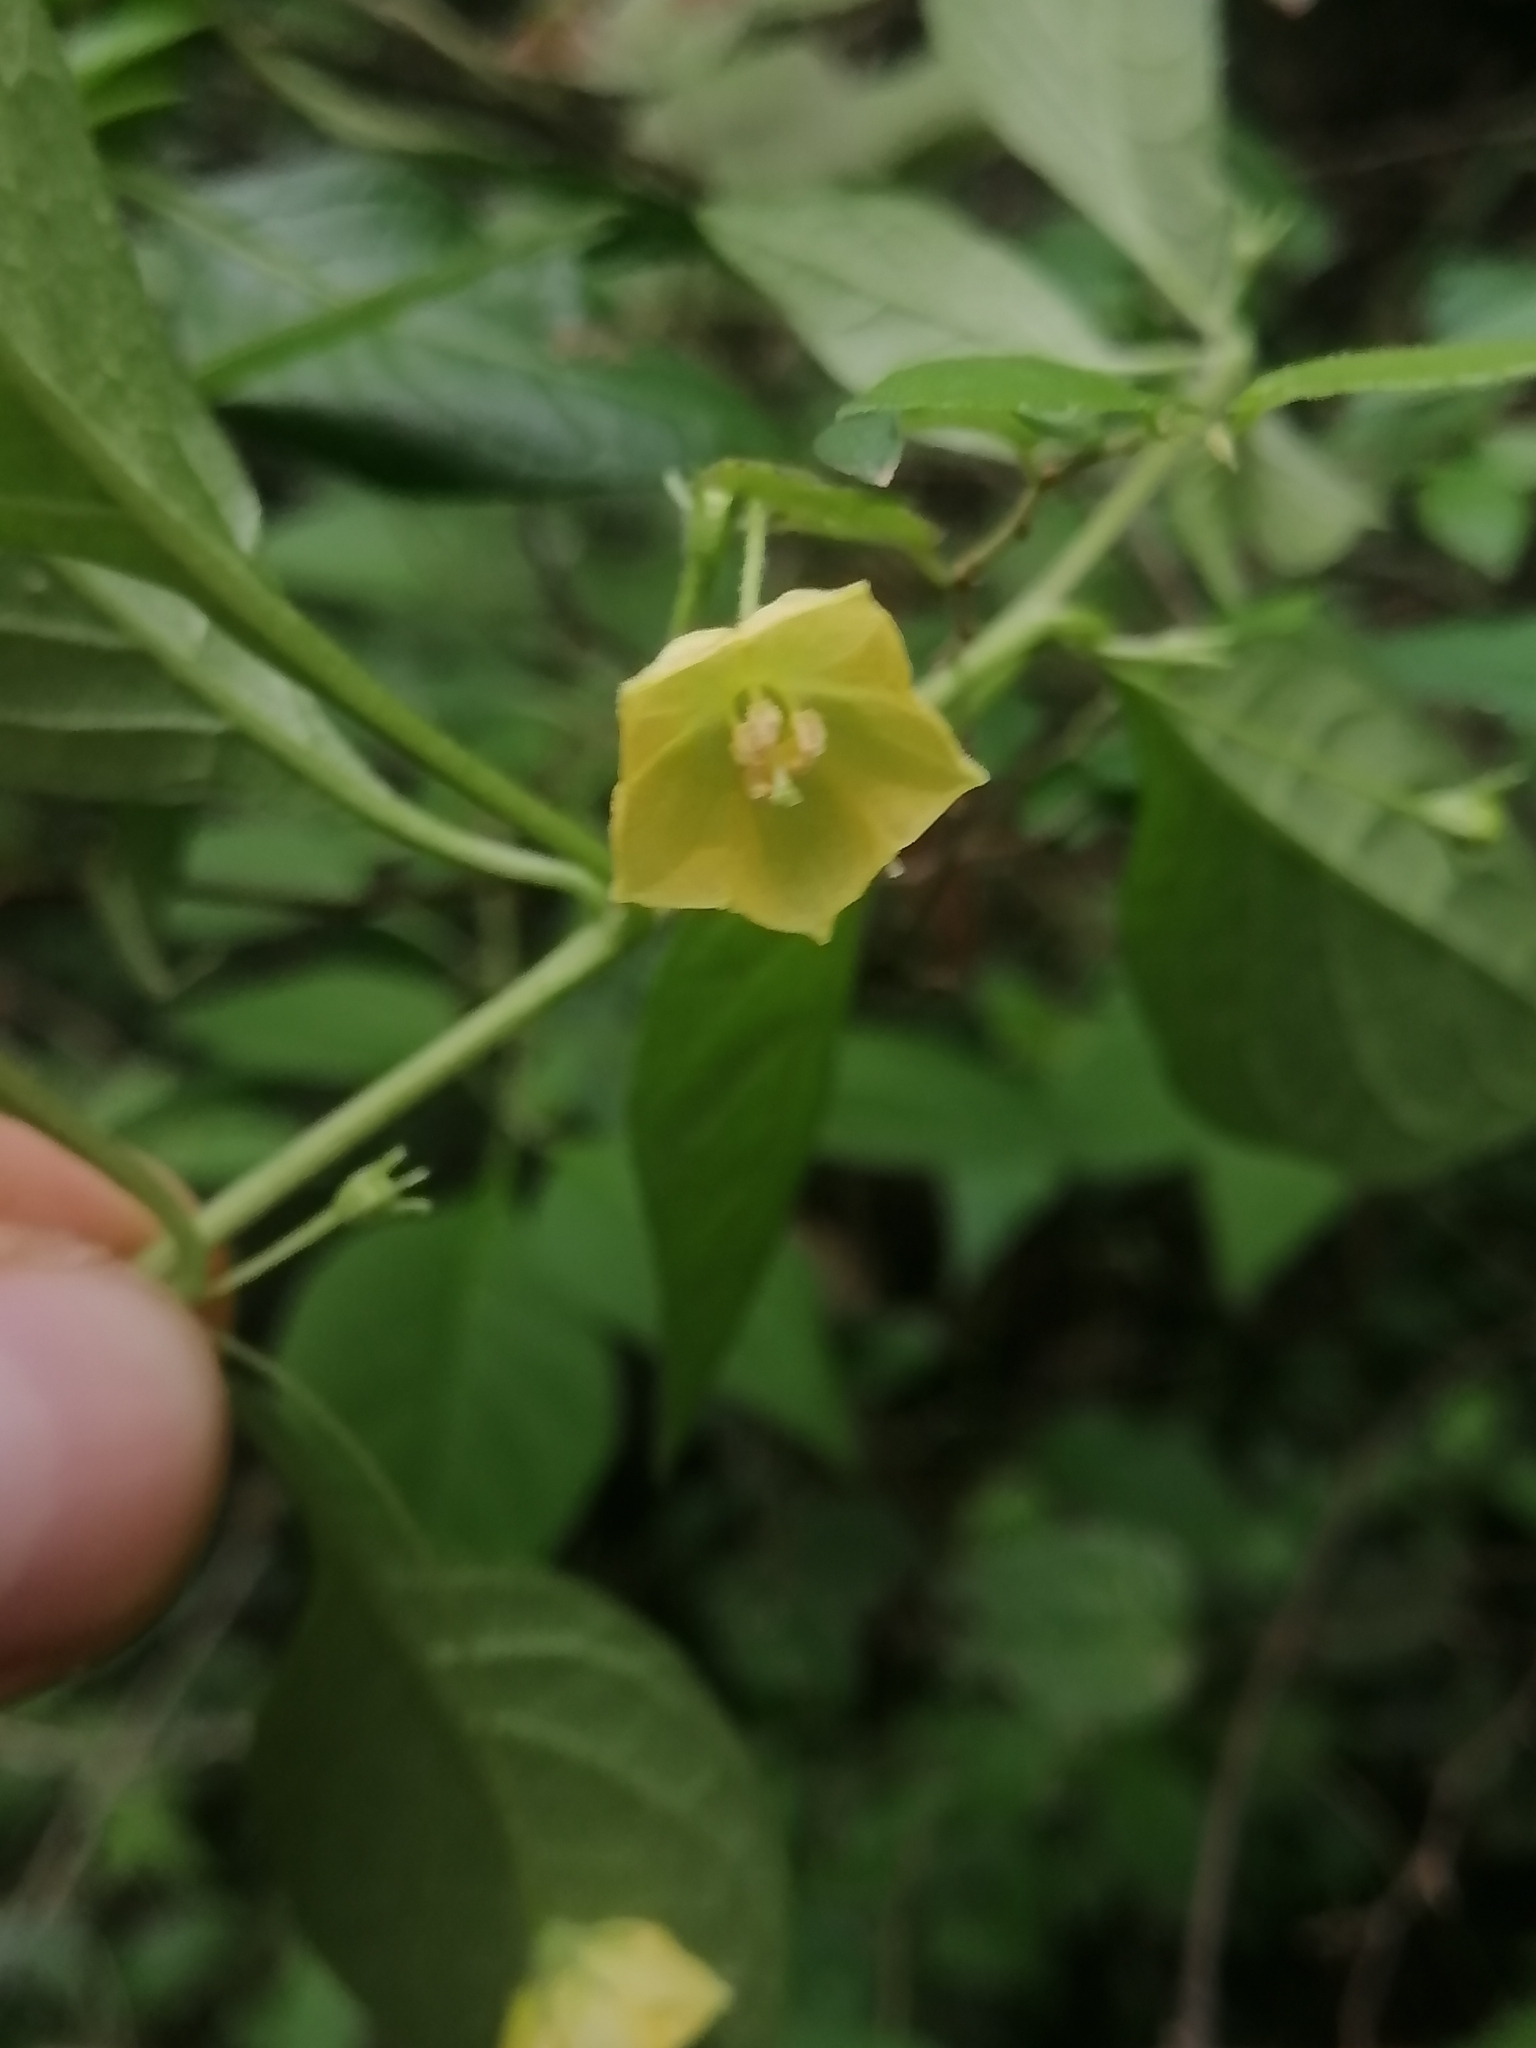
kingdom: Plantae
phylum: Tracheophyta
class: Magnoliopsida
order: Solanales
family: Solanaceae
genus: Capsicum
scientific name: Capsicum rhomboideum
